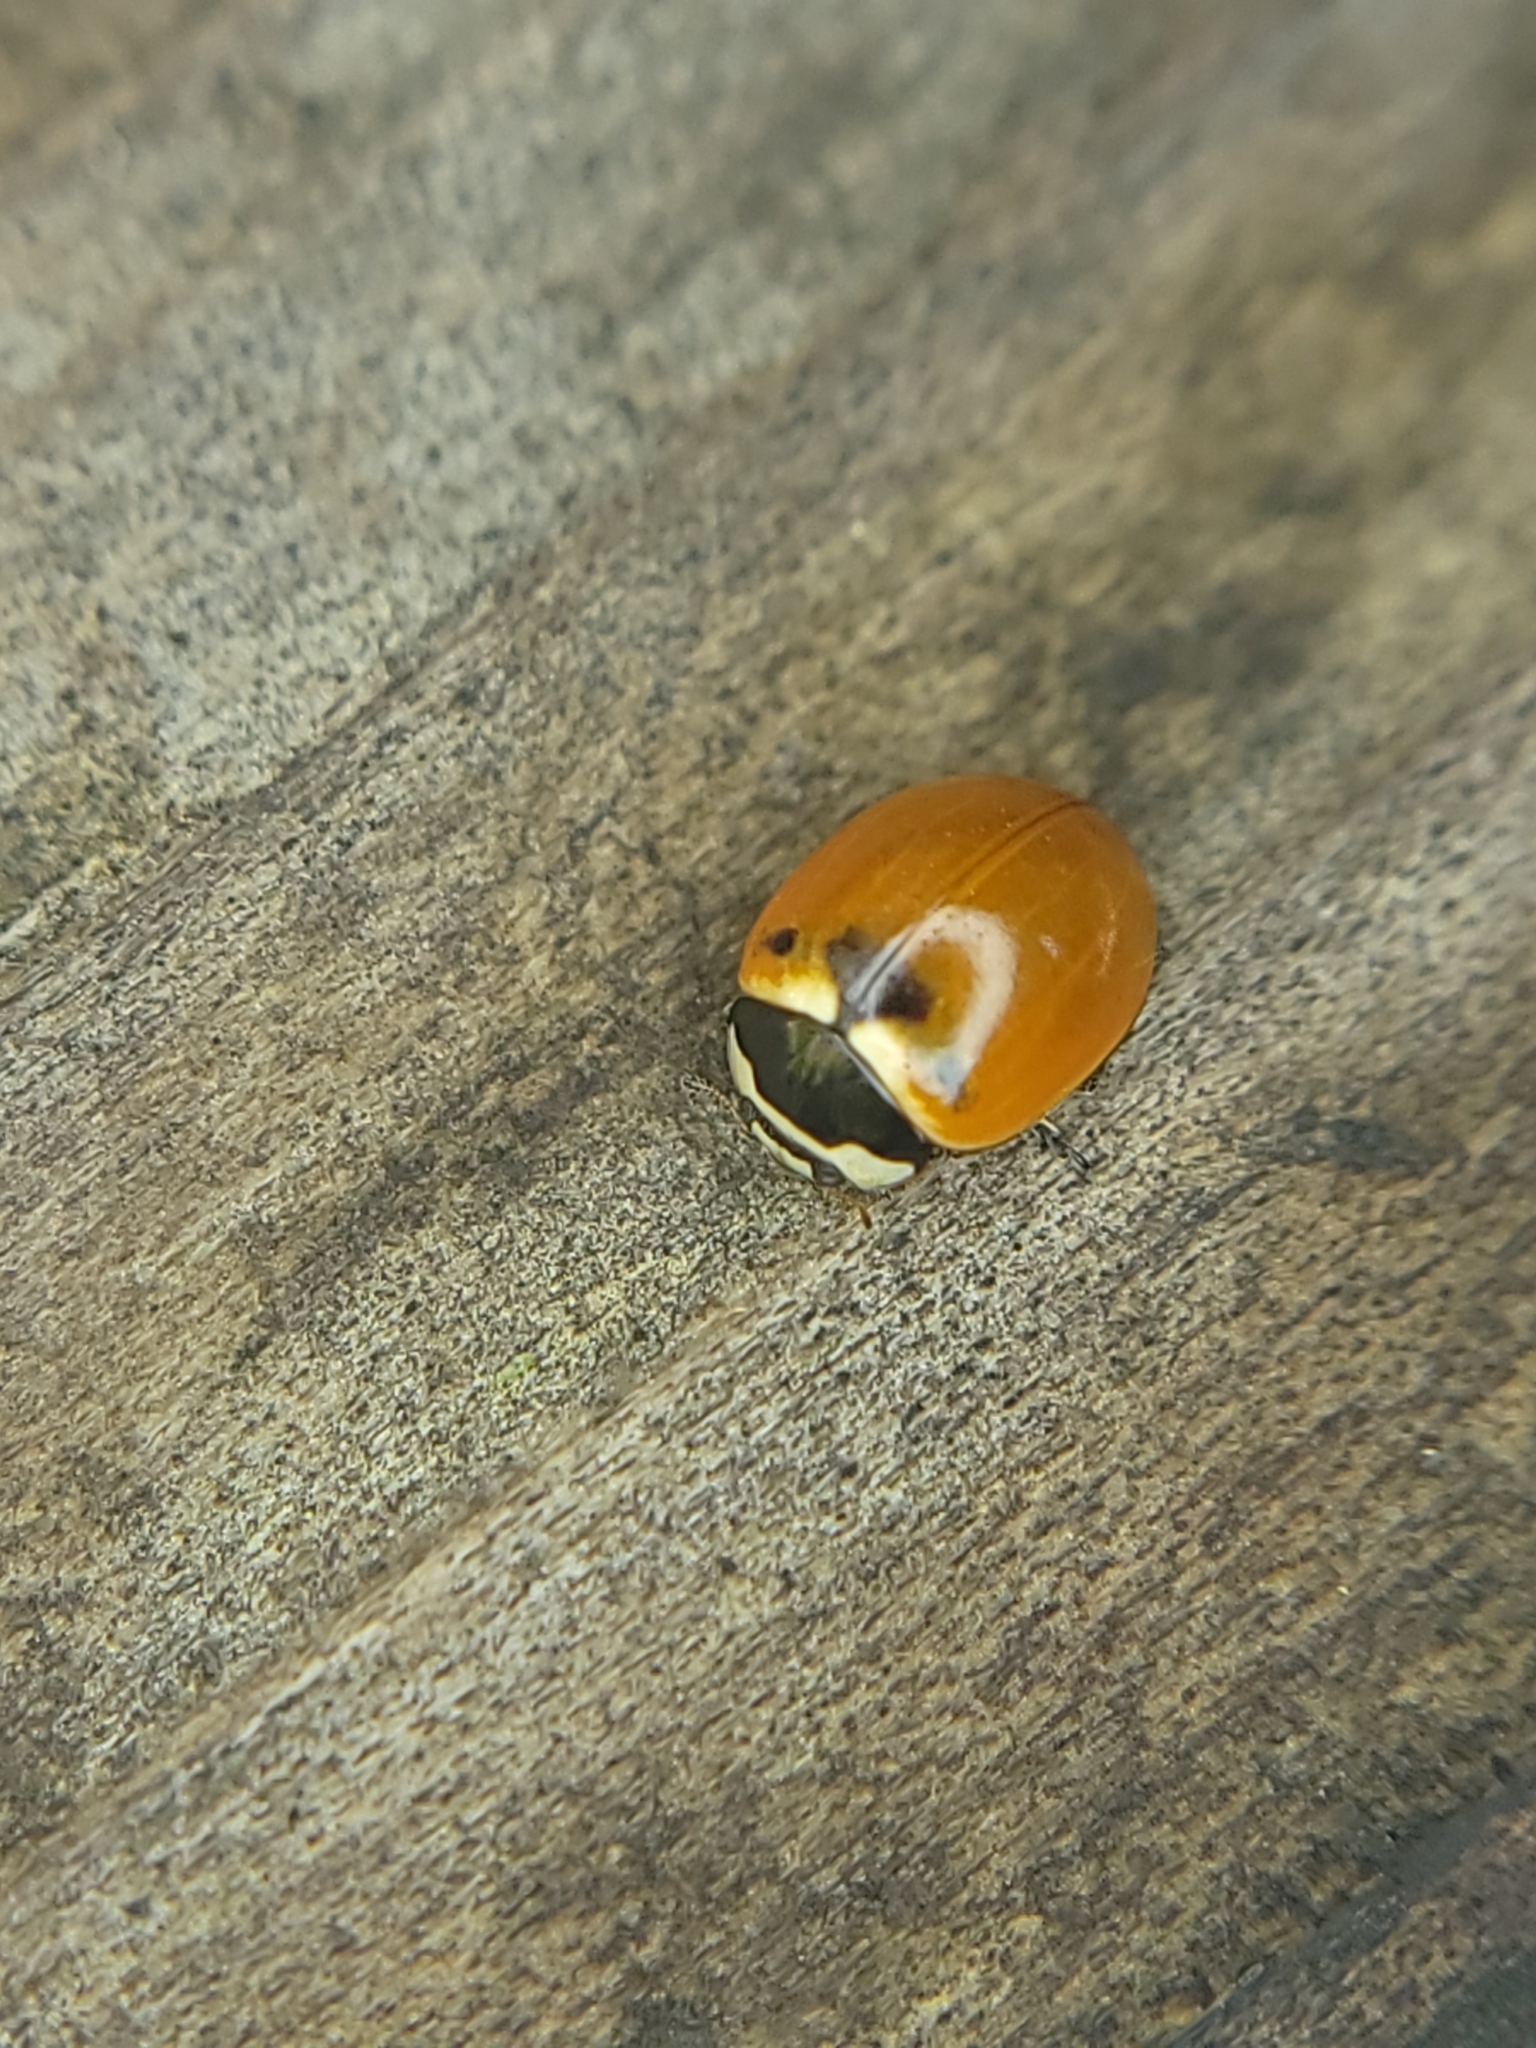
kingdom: Animalia
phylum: Arthropoda
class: Insecta
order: Coleoptera
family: Coccinellidae
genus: Coccinella
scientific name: Coccinella trifasciata
